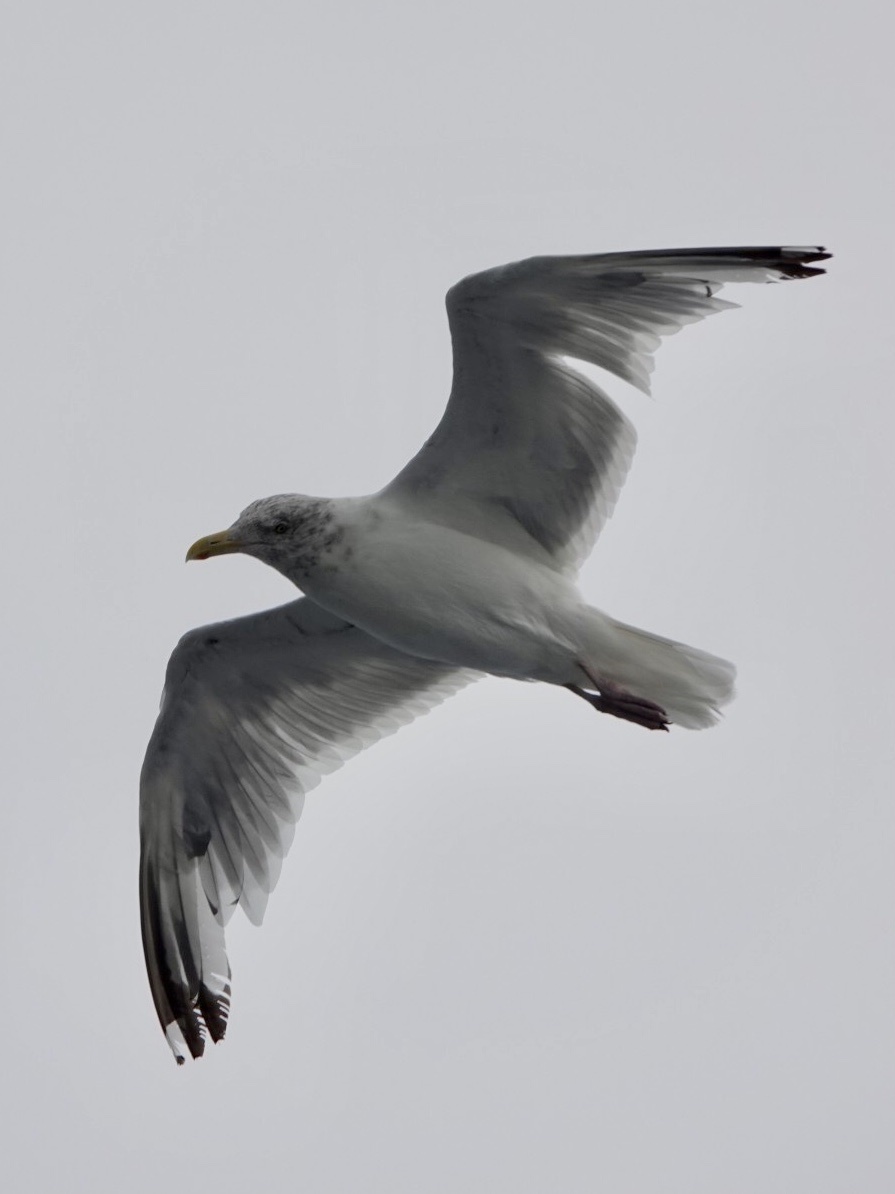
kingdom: Animalia
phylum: Chordata
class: Aves
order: Charadriiformes
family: Laridae
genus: Larus
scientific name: Larus argentatus
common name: Herring gull
